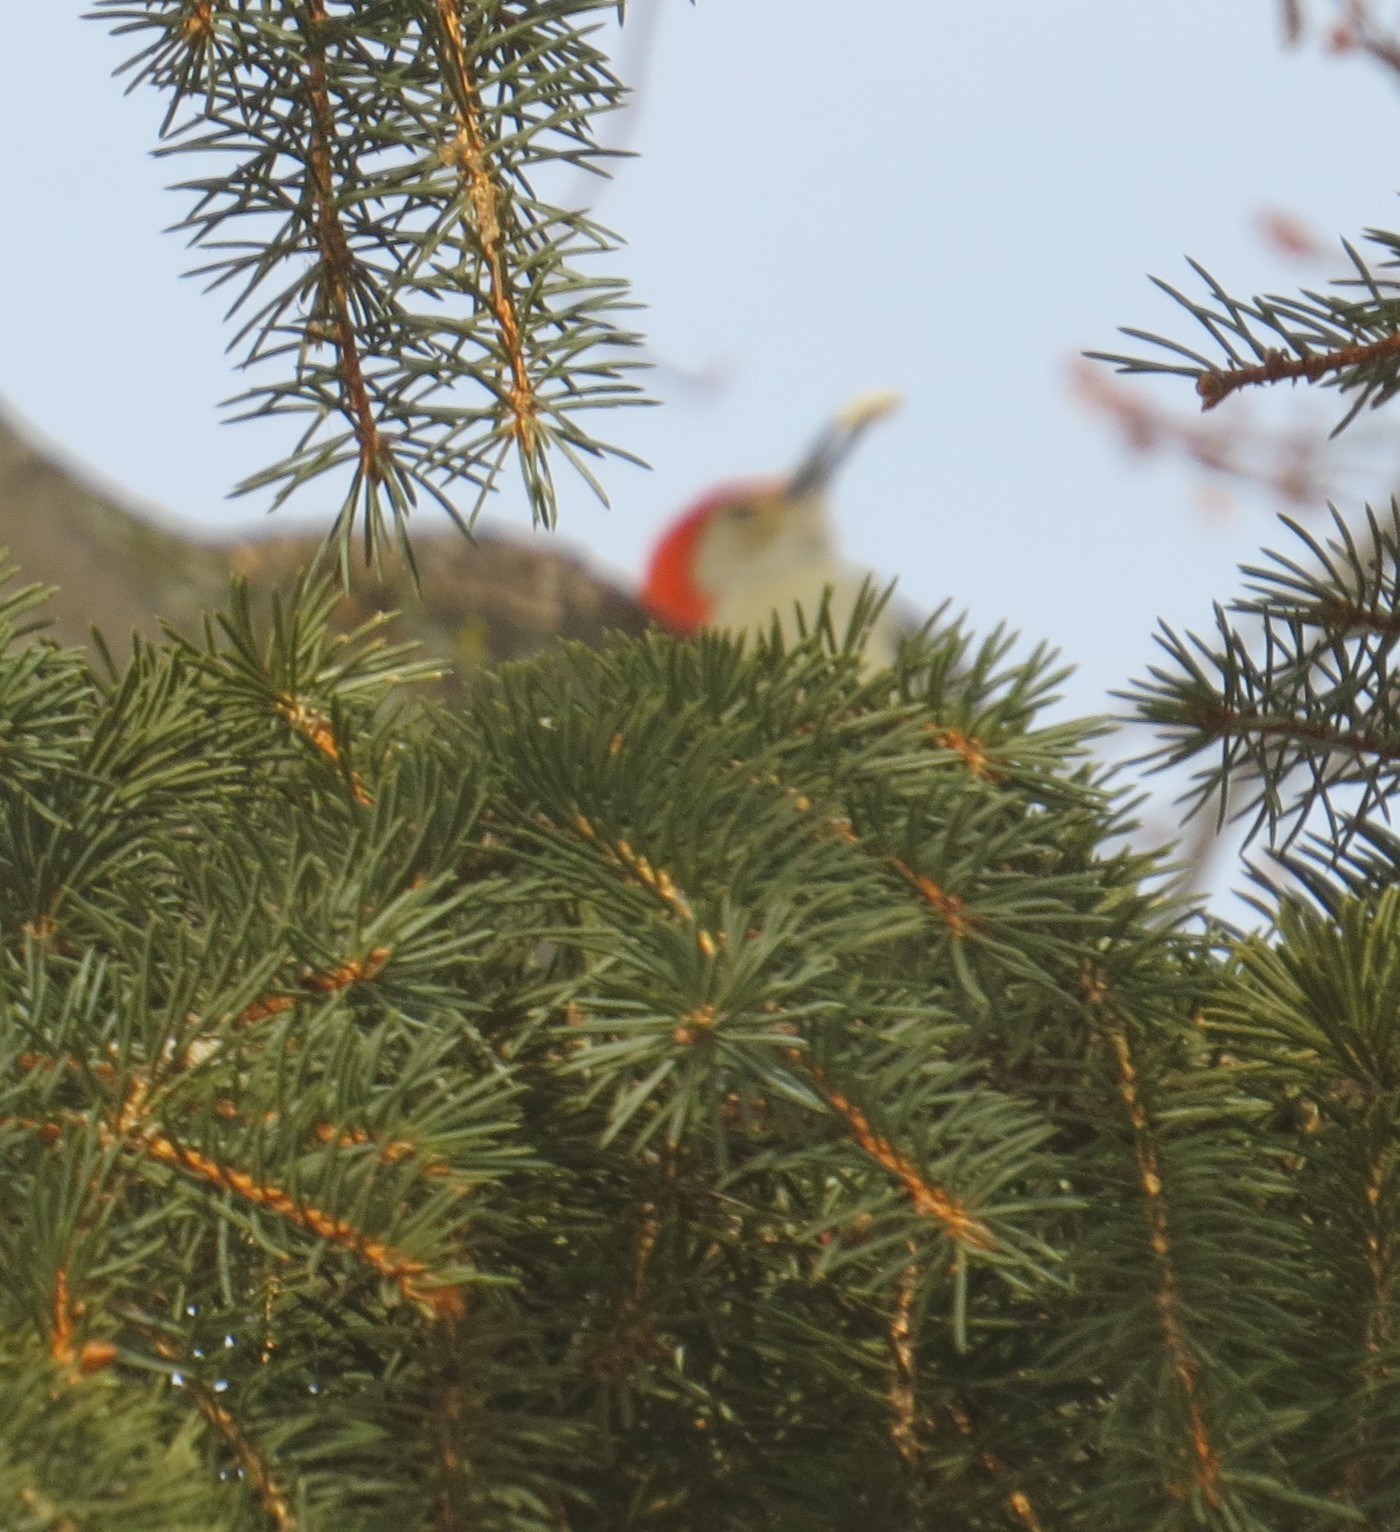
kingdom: Animalia
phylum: Chordata
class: Aves
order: Piciformes
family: Picidae
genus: Melanerpes
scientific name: Melanerpes carolinus
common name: Red-bellied woodpecker
